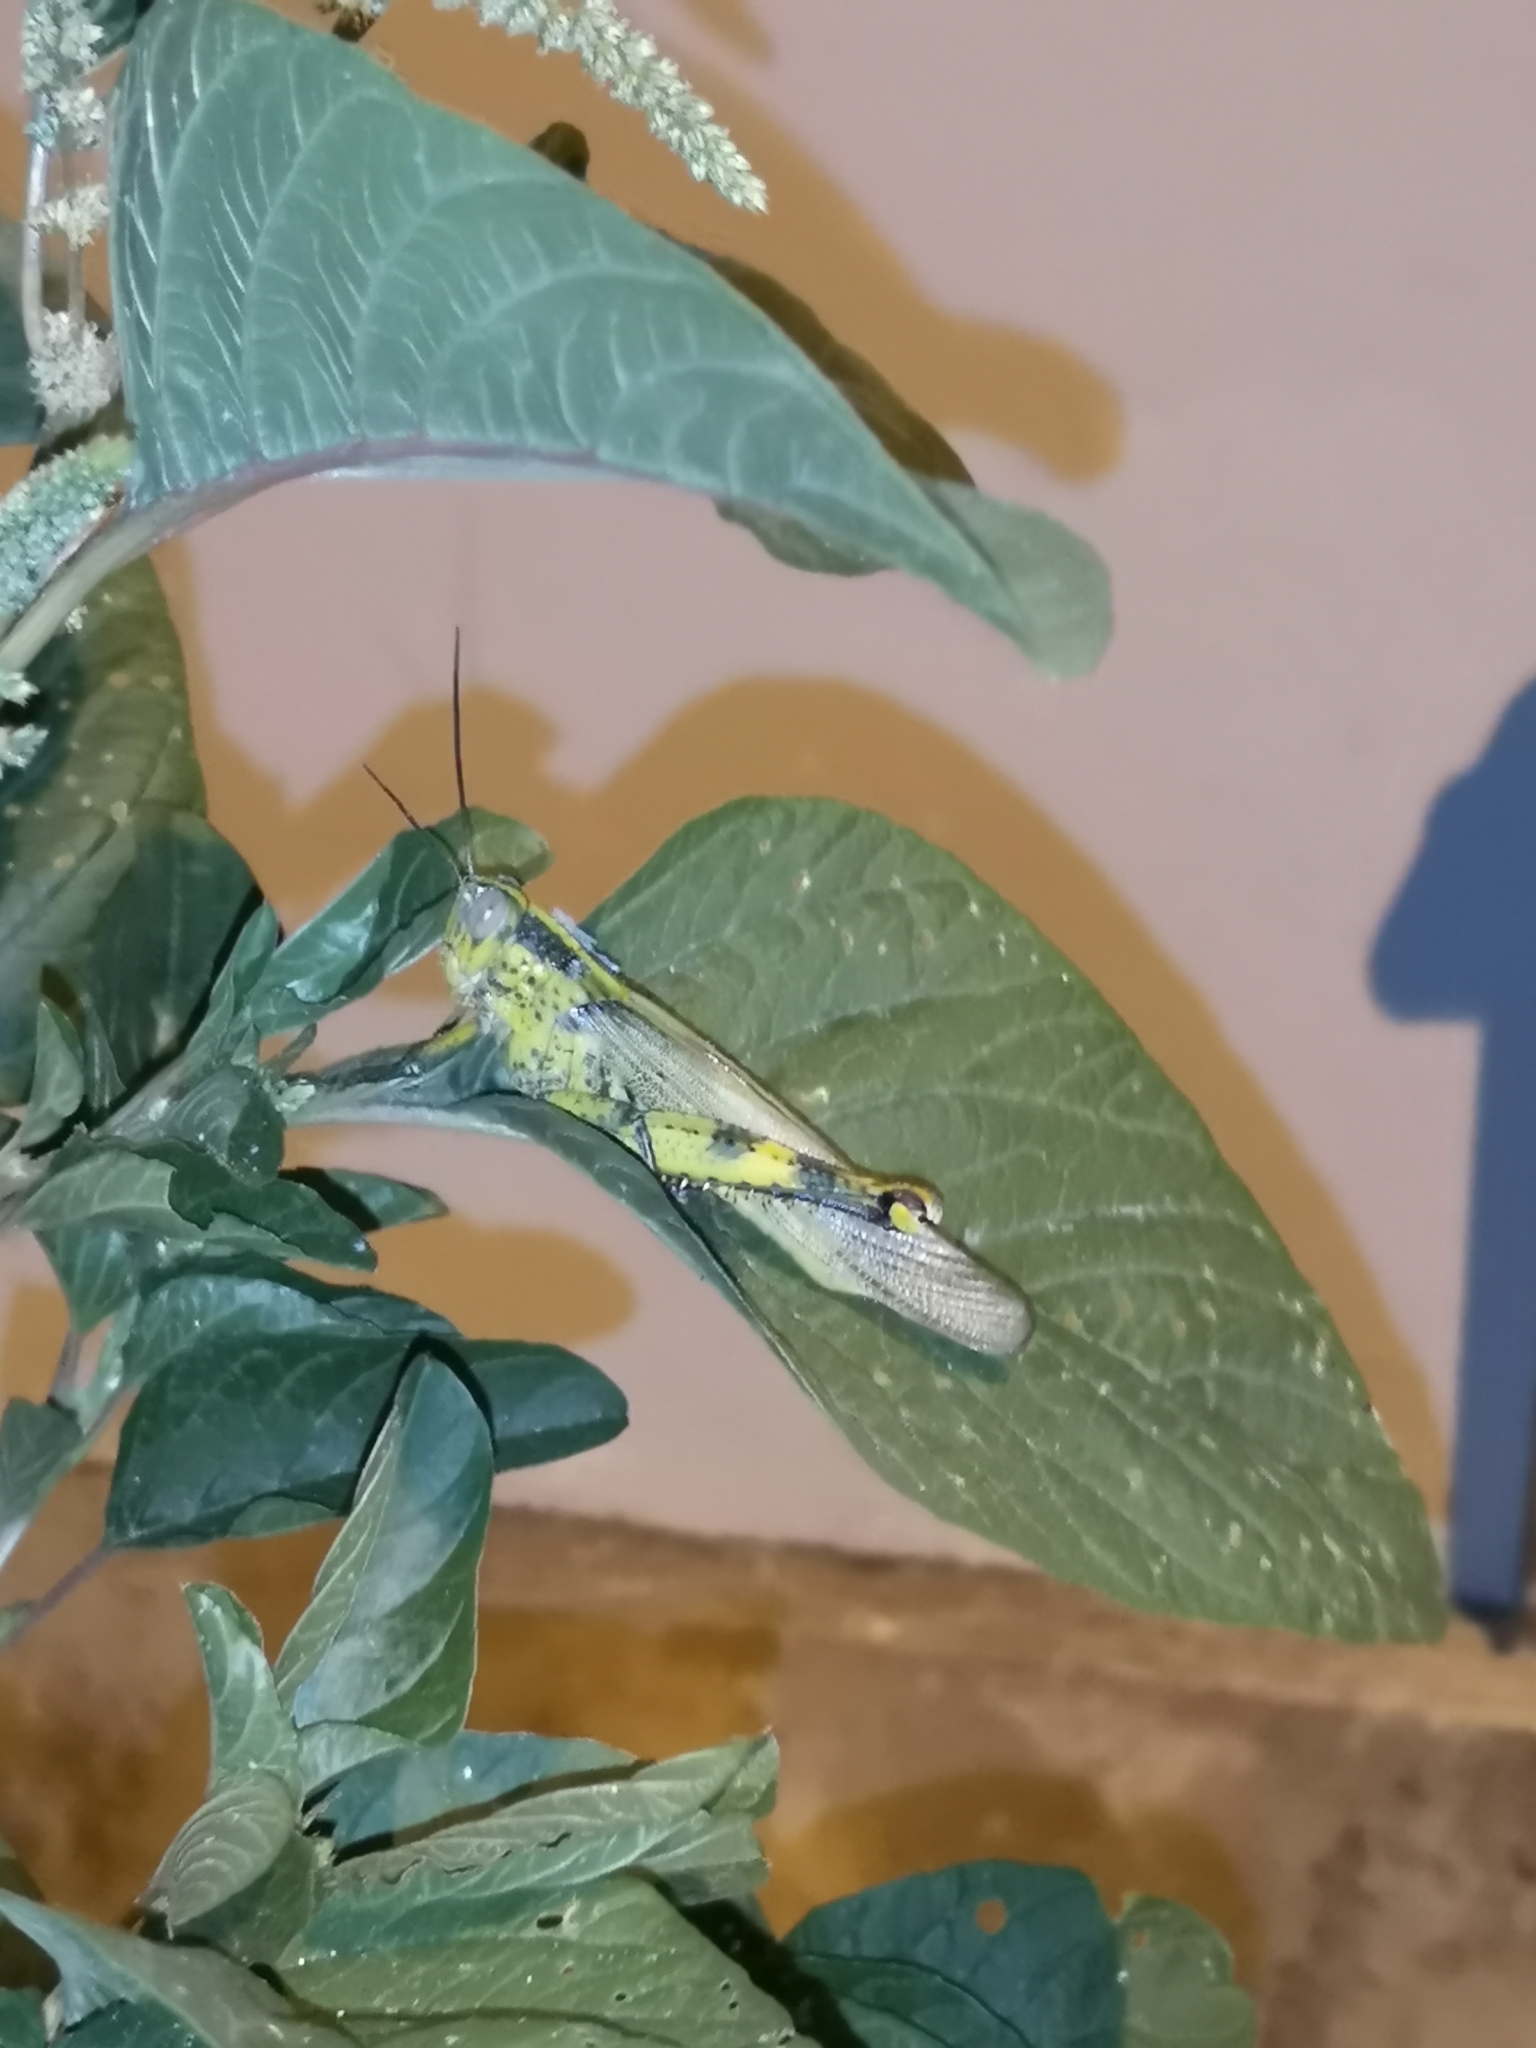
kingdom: Animalia
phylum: Arthropoda
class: Insecta
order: Orthoptera
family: Acrididae
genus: Valanga
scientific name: Valanga nigricornis
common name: Javanese bird grasshopper
